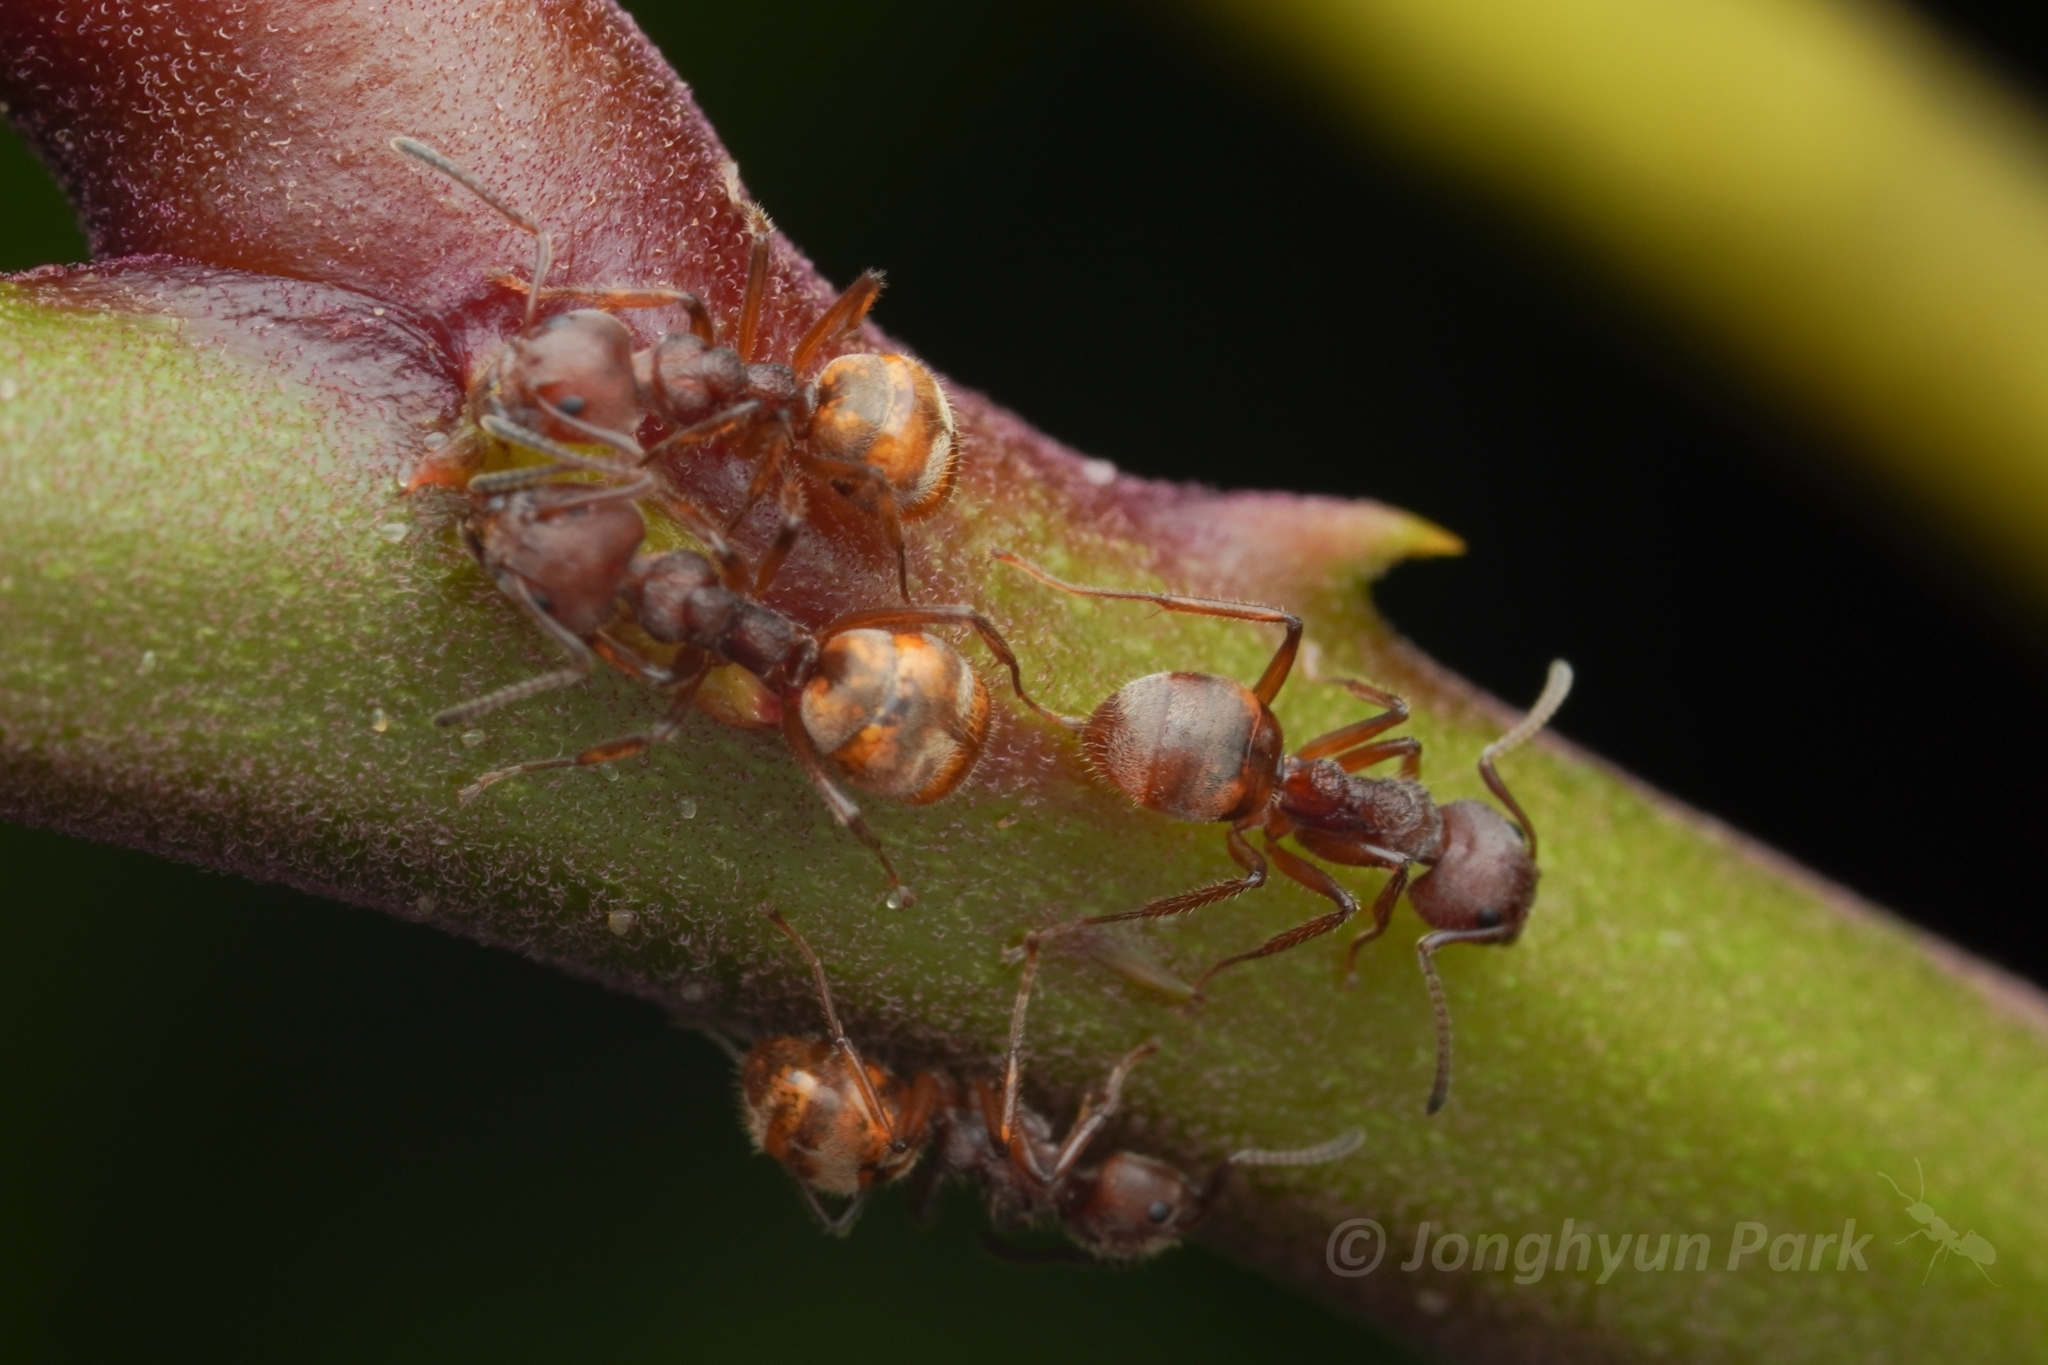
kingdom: Animalia
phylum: Arthropoda
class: Insecta
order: Hymenoptera
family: Formicidae
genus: Dolichoderus
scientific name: Dolichoderus thoracicus
